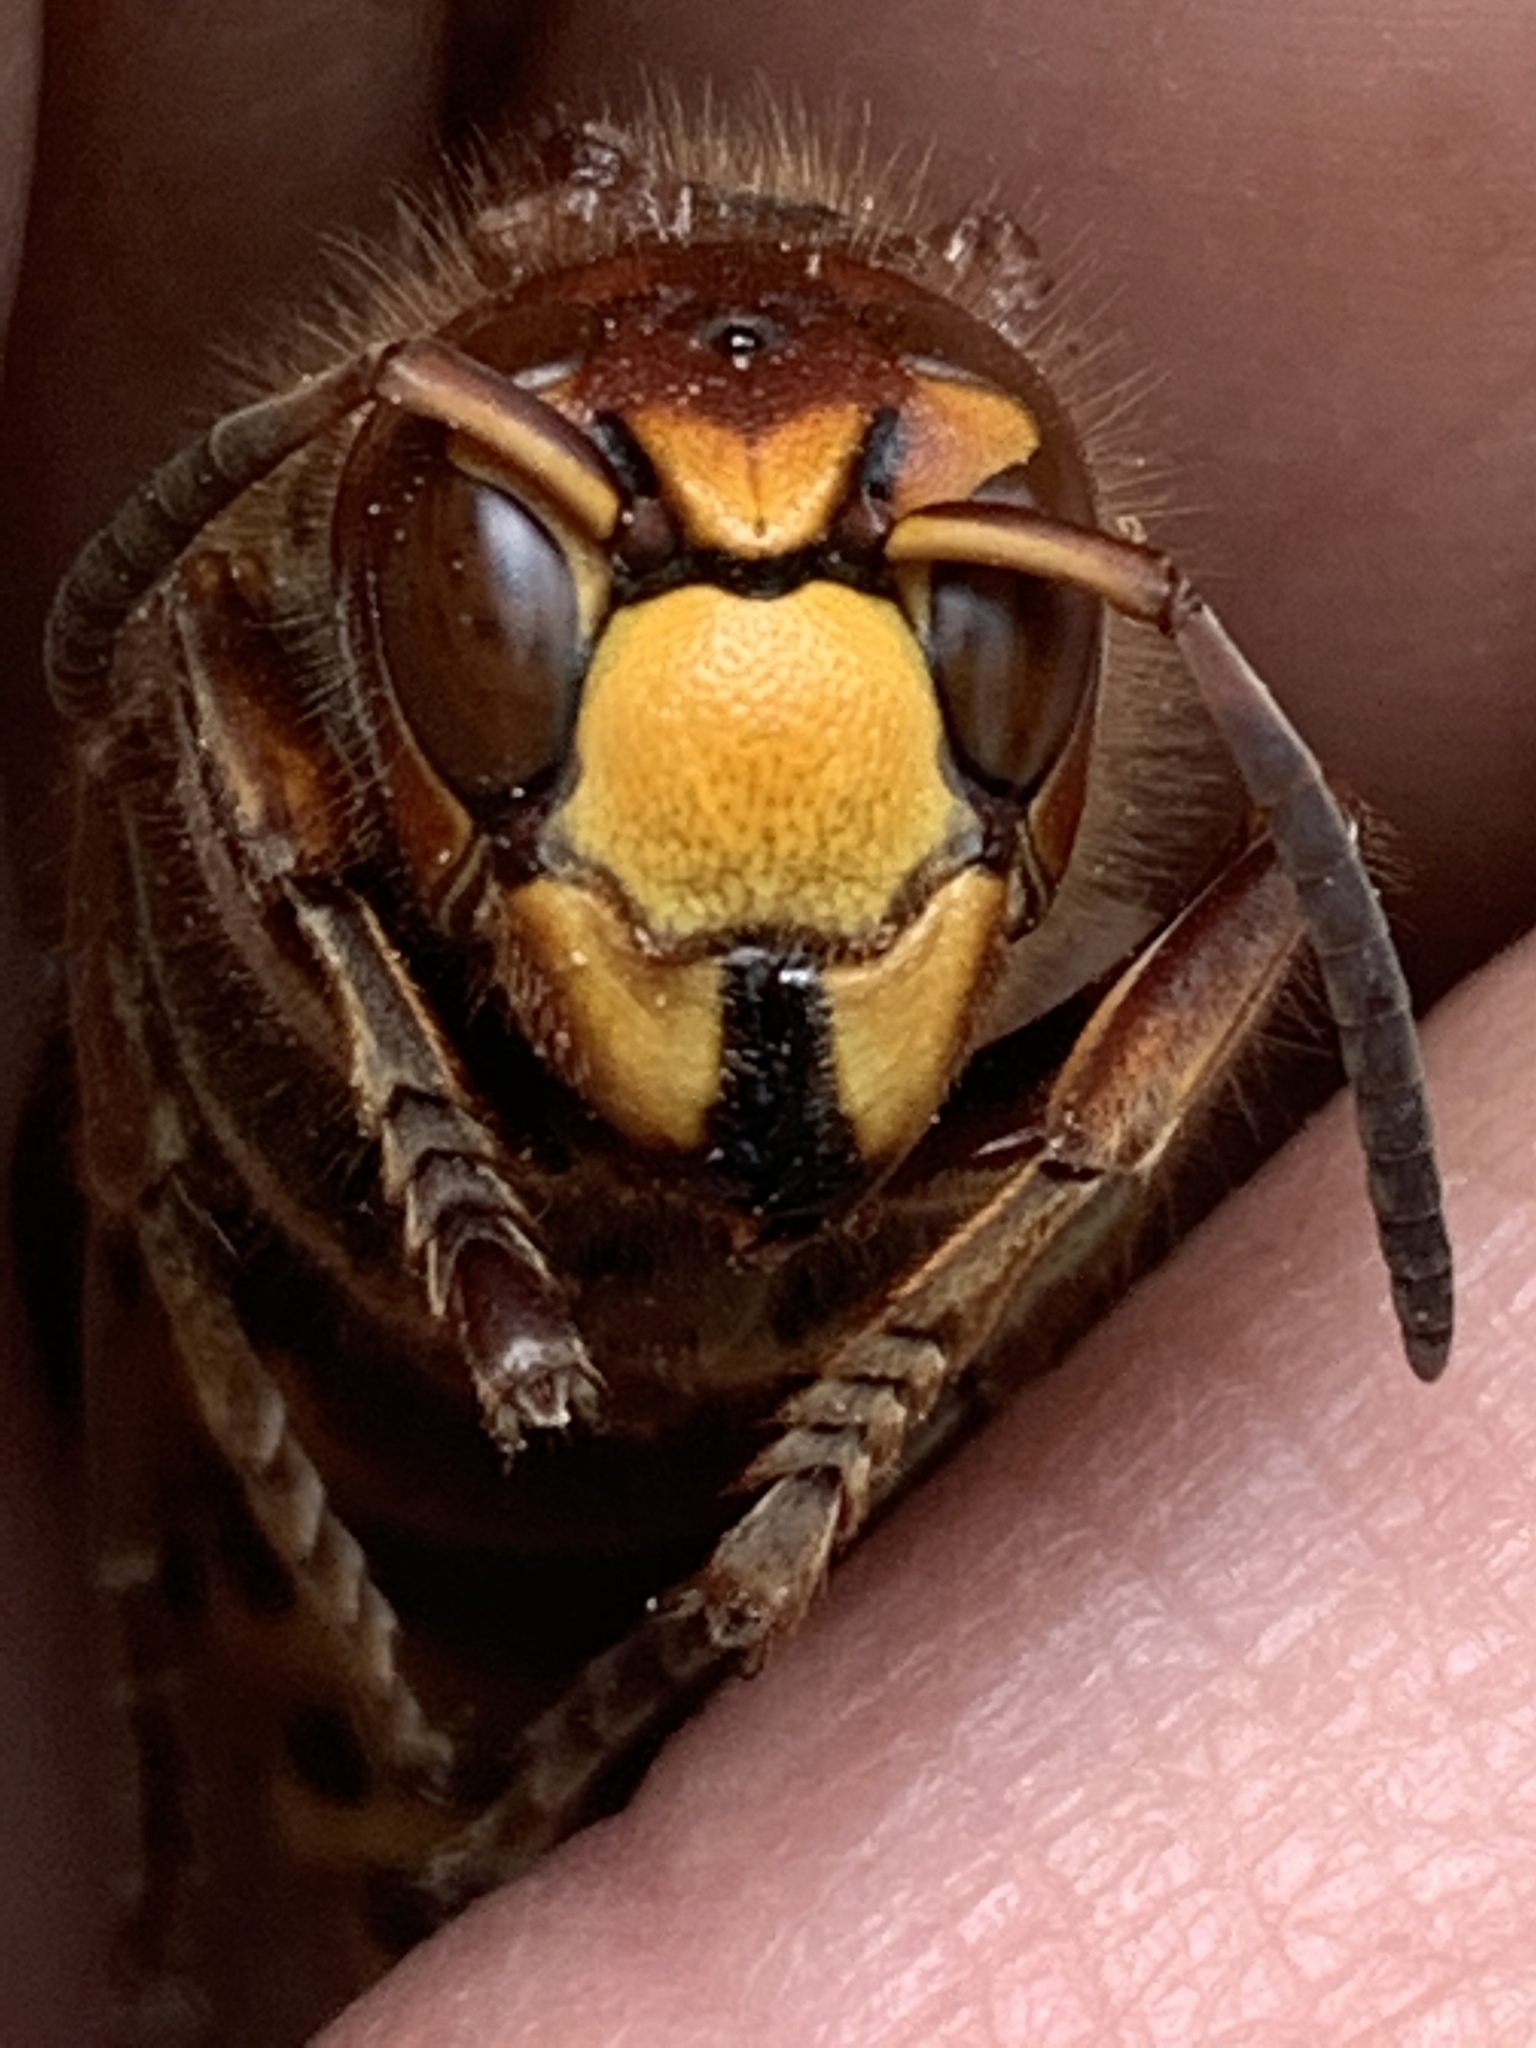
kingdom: Animalia
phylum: Arthropoda
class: Insecta
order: Hymenoptera
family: Vespidae
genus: Vespa
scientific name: Vespa crabro
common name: Hornet
